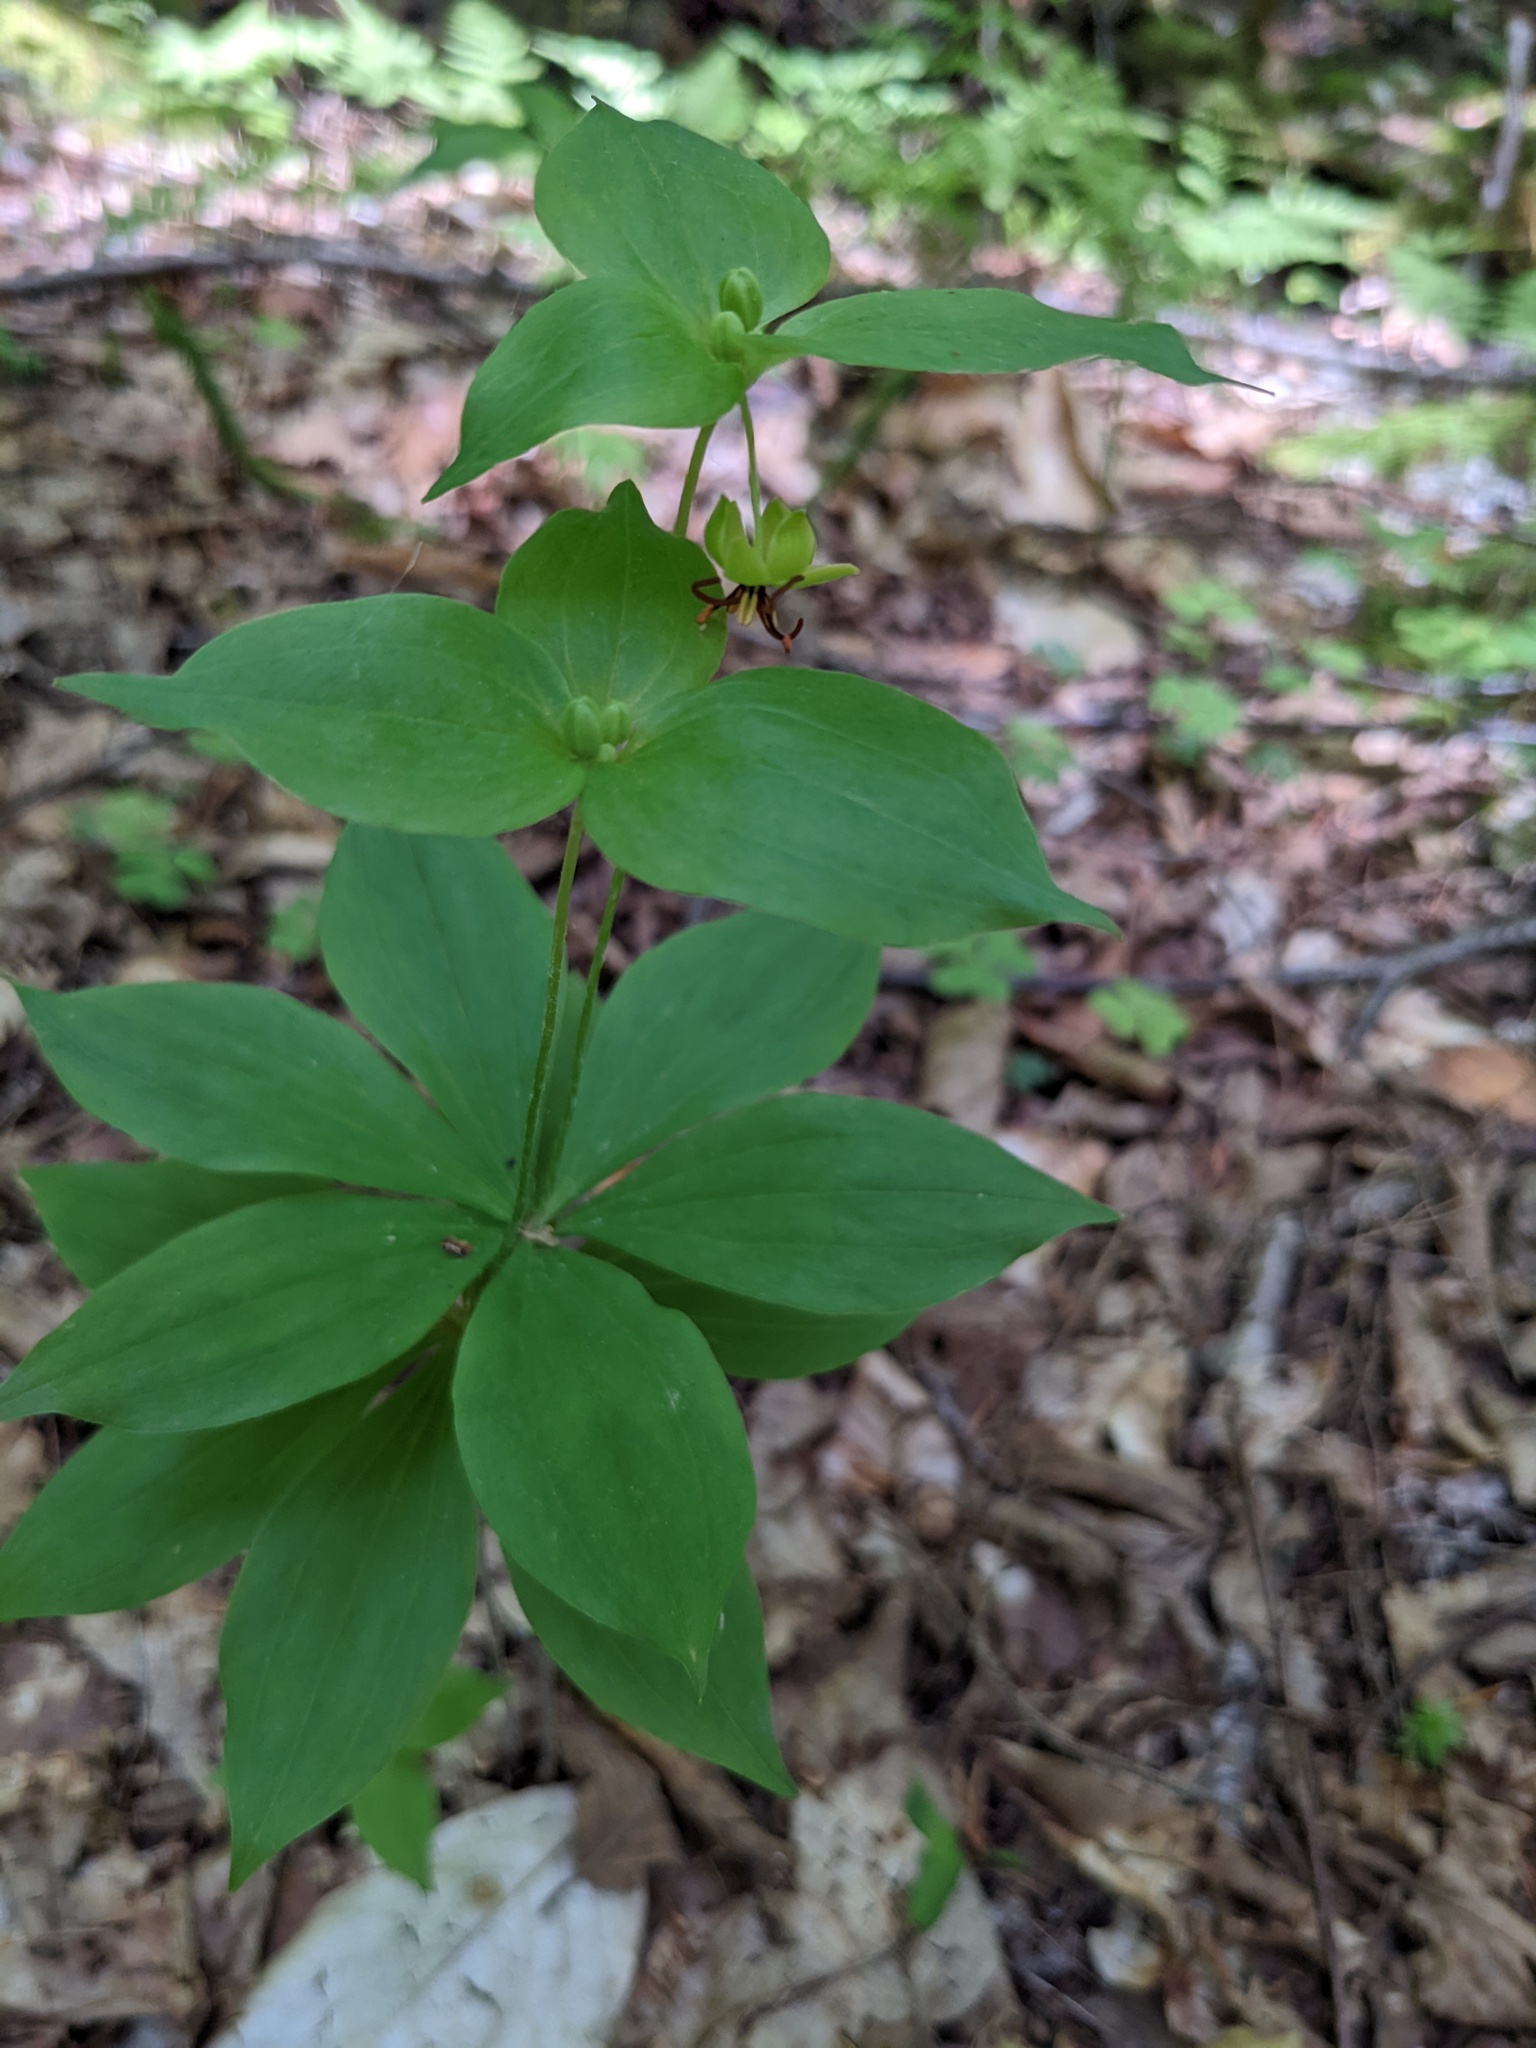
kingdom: Plantae
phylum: Tracheophyta
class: Liliopsida
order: Liliales
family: Liliaceae
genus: Medeola
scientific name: Medeola virginiana
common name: Indian cucumber-root
